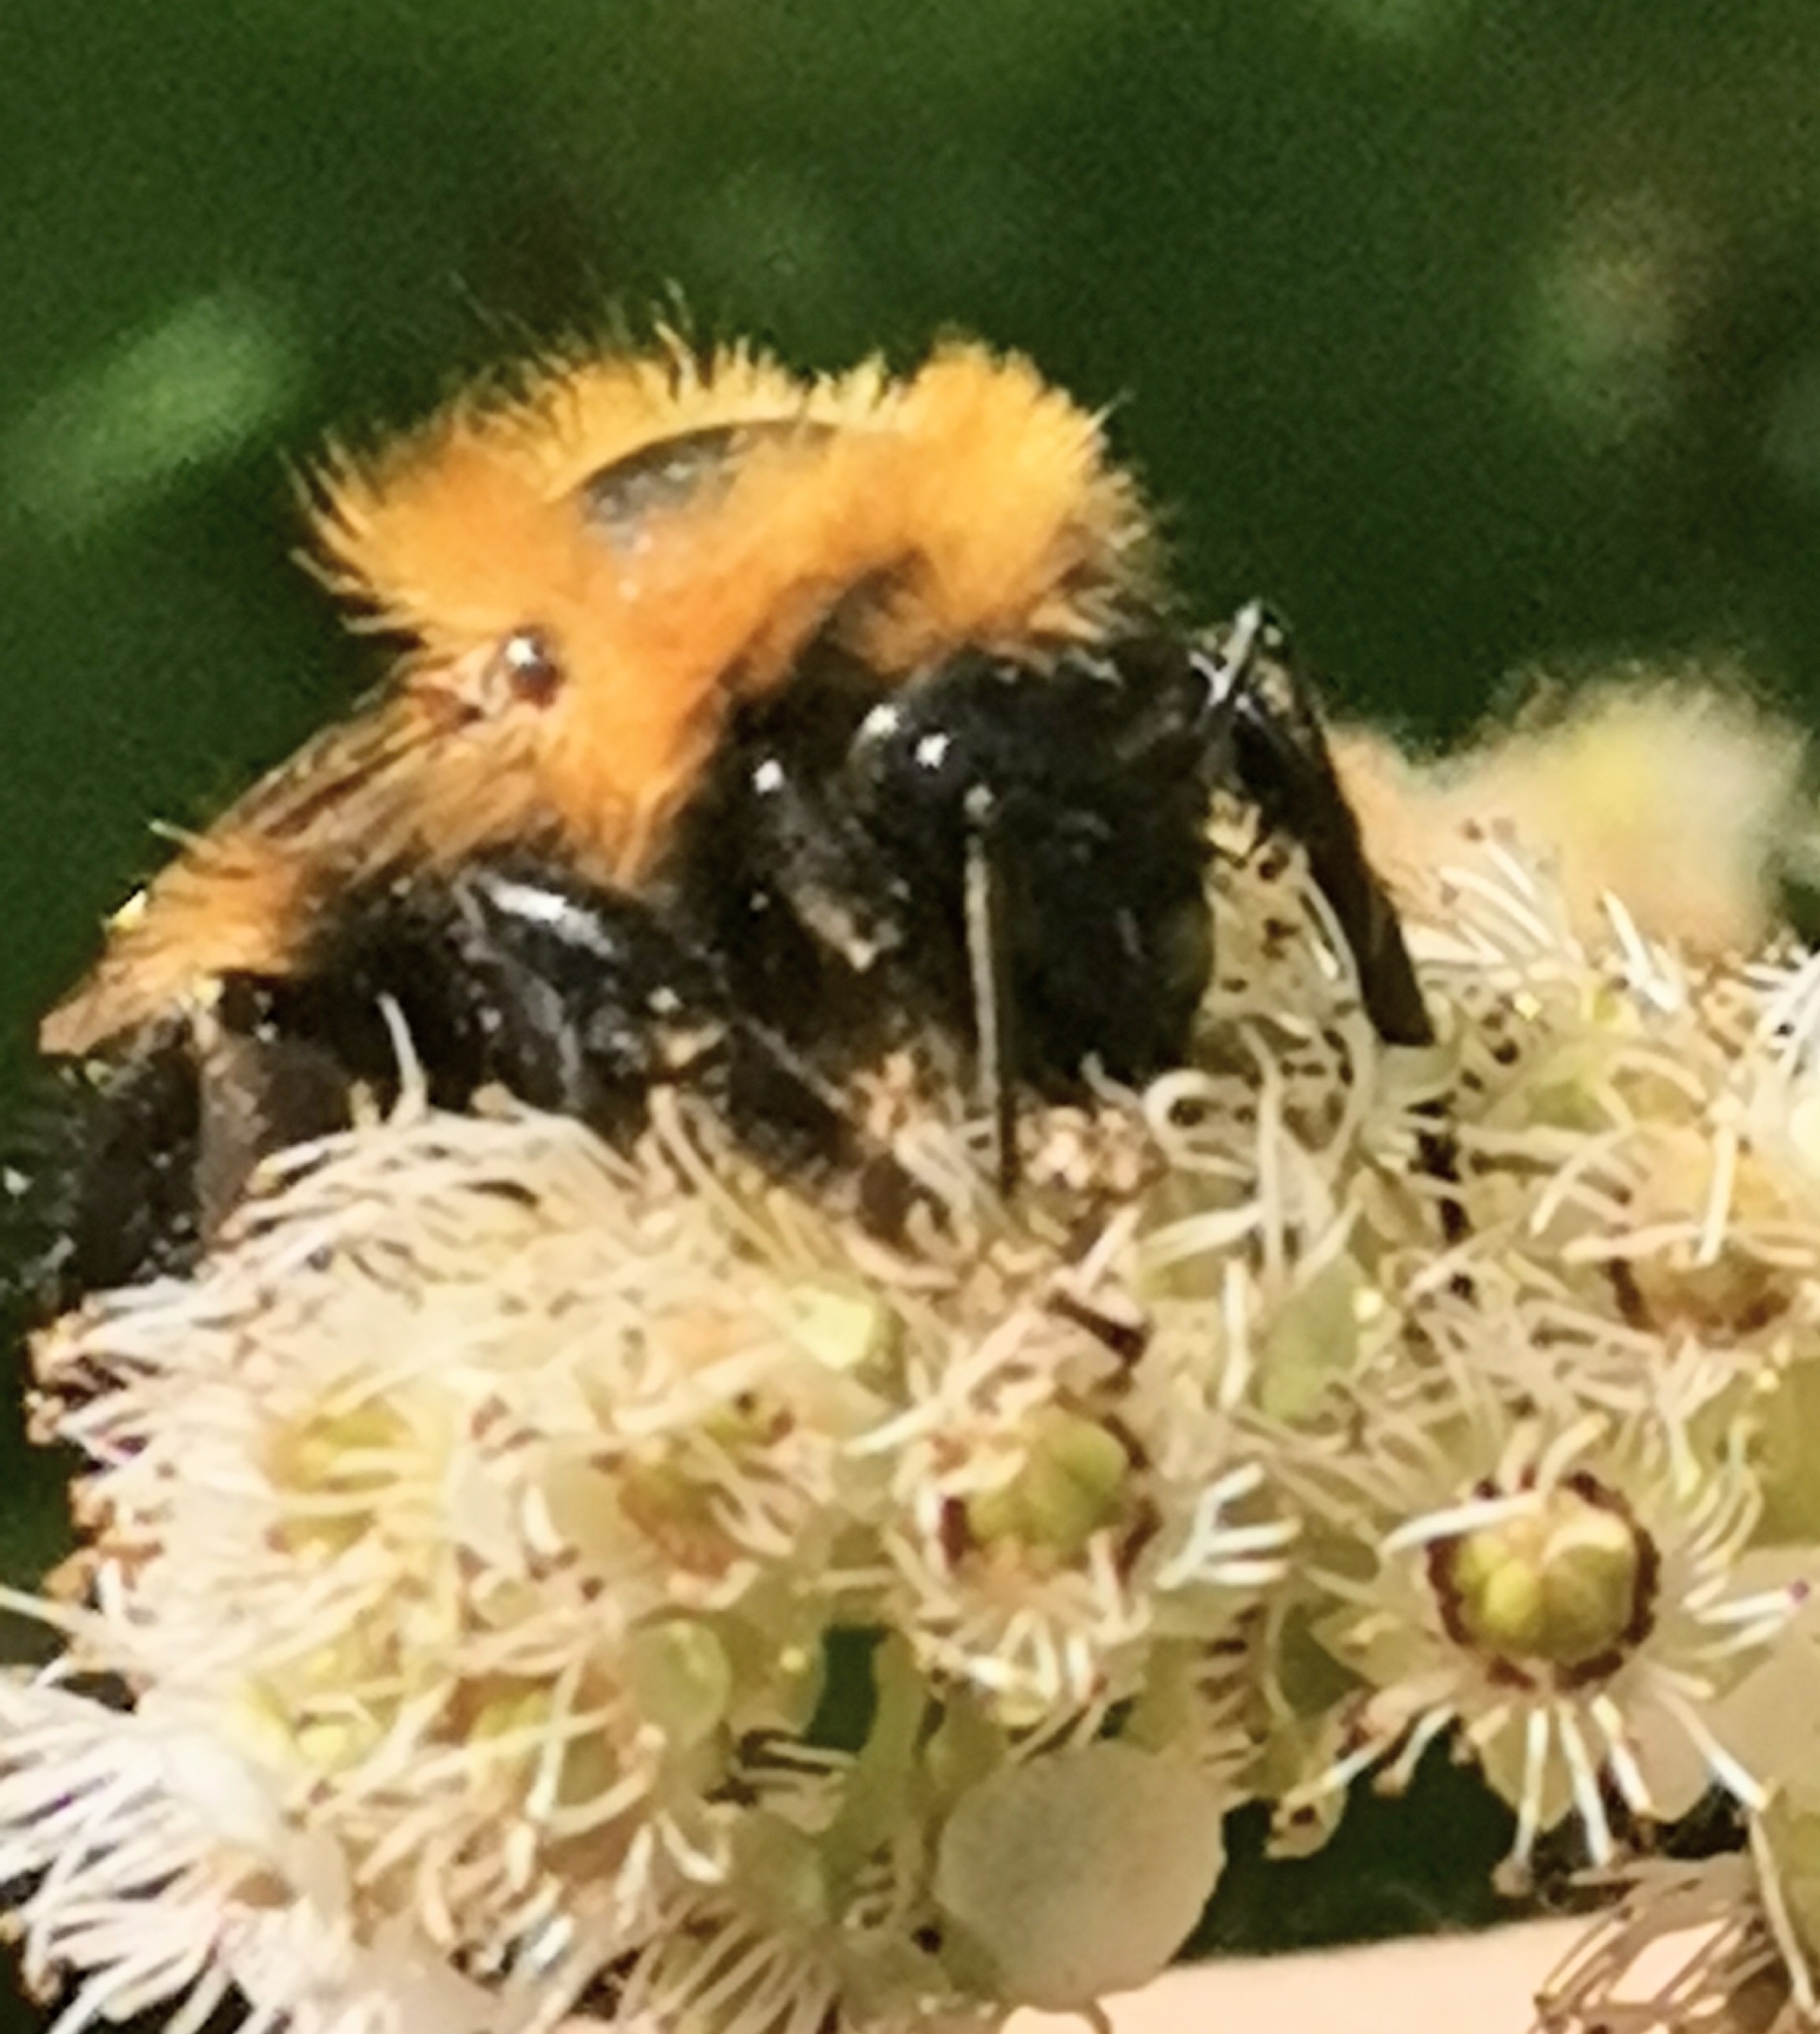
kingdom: Animalia
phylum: Arthropoda
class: Insecta
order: Hymenoptera
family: Apidae
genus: Bombus
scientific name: Bombus hypnorum
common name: New garden bumblebee
